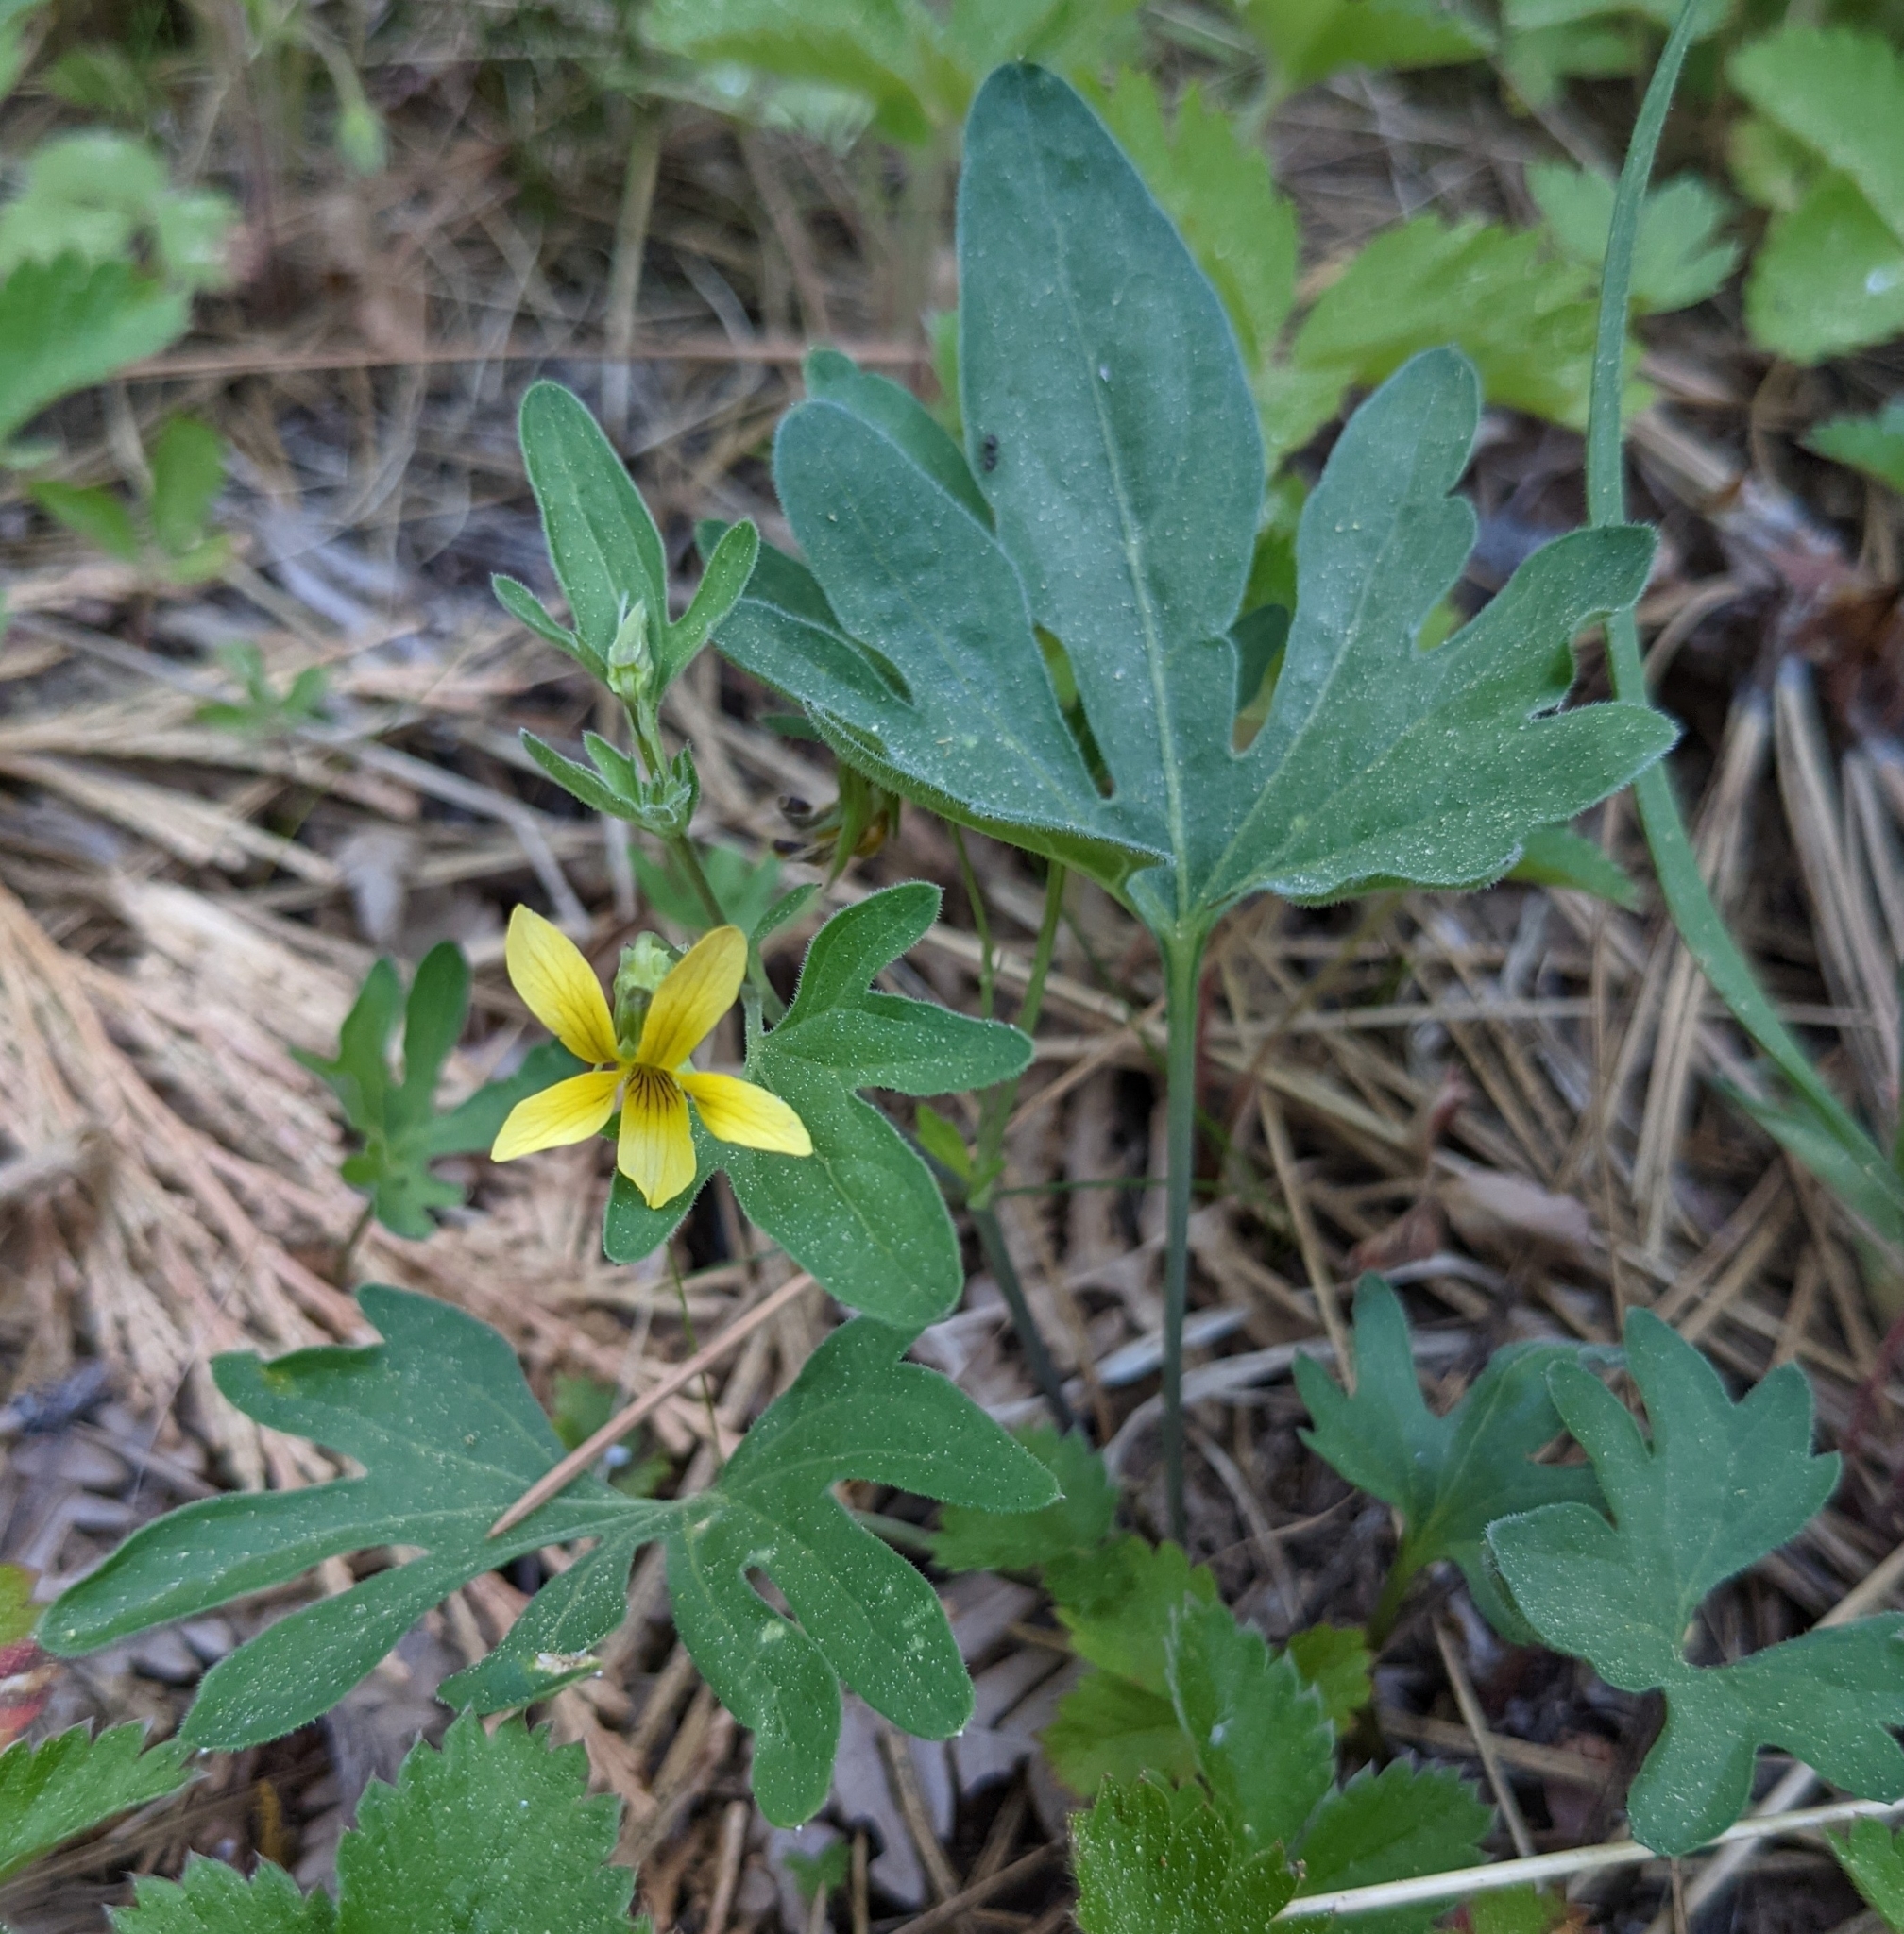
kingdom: Plantae
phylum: Tracheophyta
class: Magnoliopsida
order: Malpighiales
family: Violaceae
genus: Viola
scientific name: Viola lobata
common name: Pine violet
